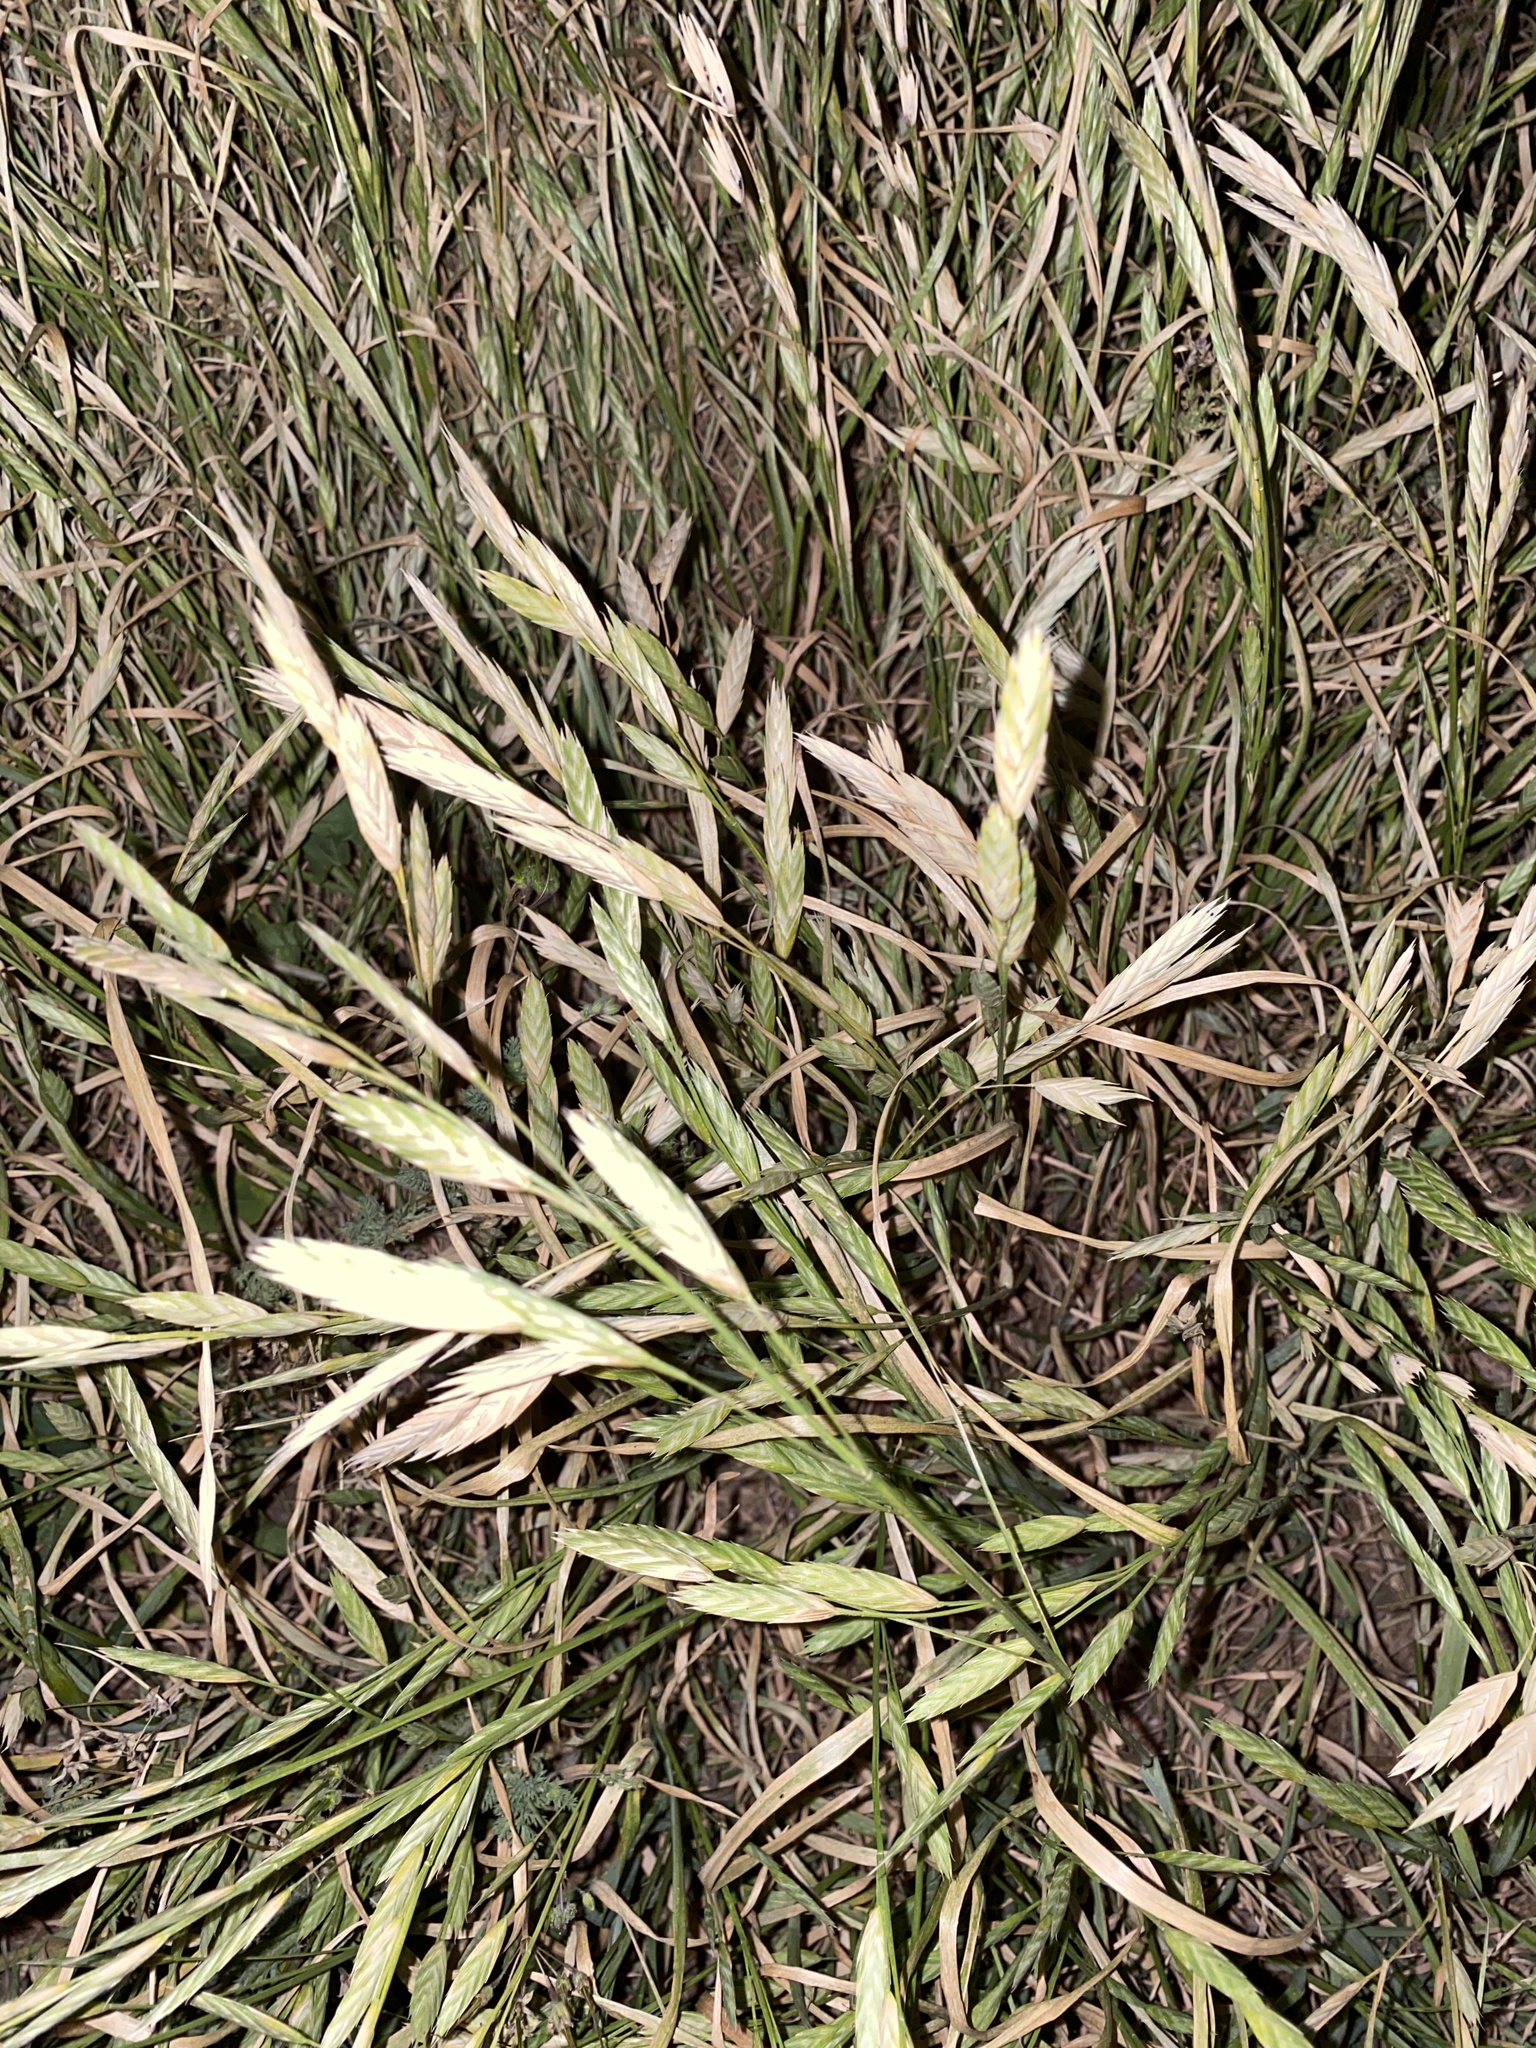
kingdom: Plantae
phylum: Tracheophyta
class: Liliopsida
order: Poales
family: Poaceae
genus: Bromus
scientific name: Bromus catharticus
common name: Rescuegrass
